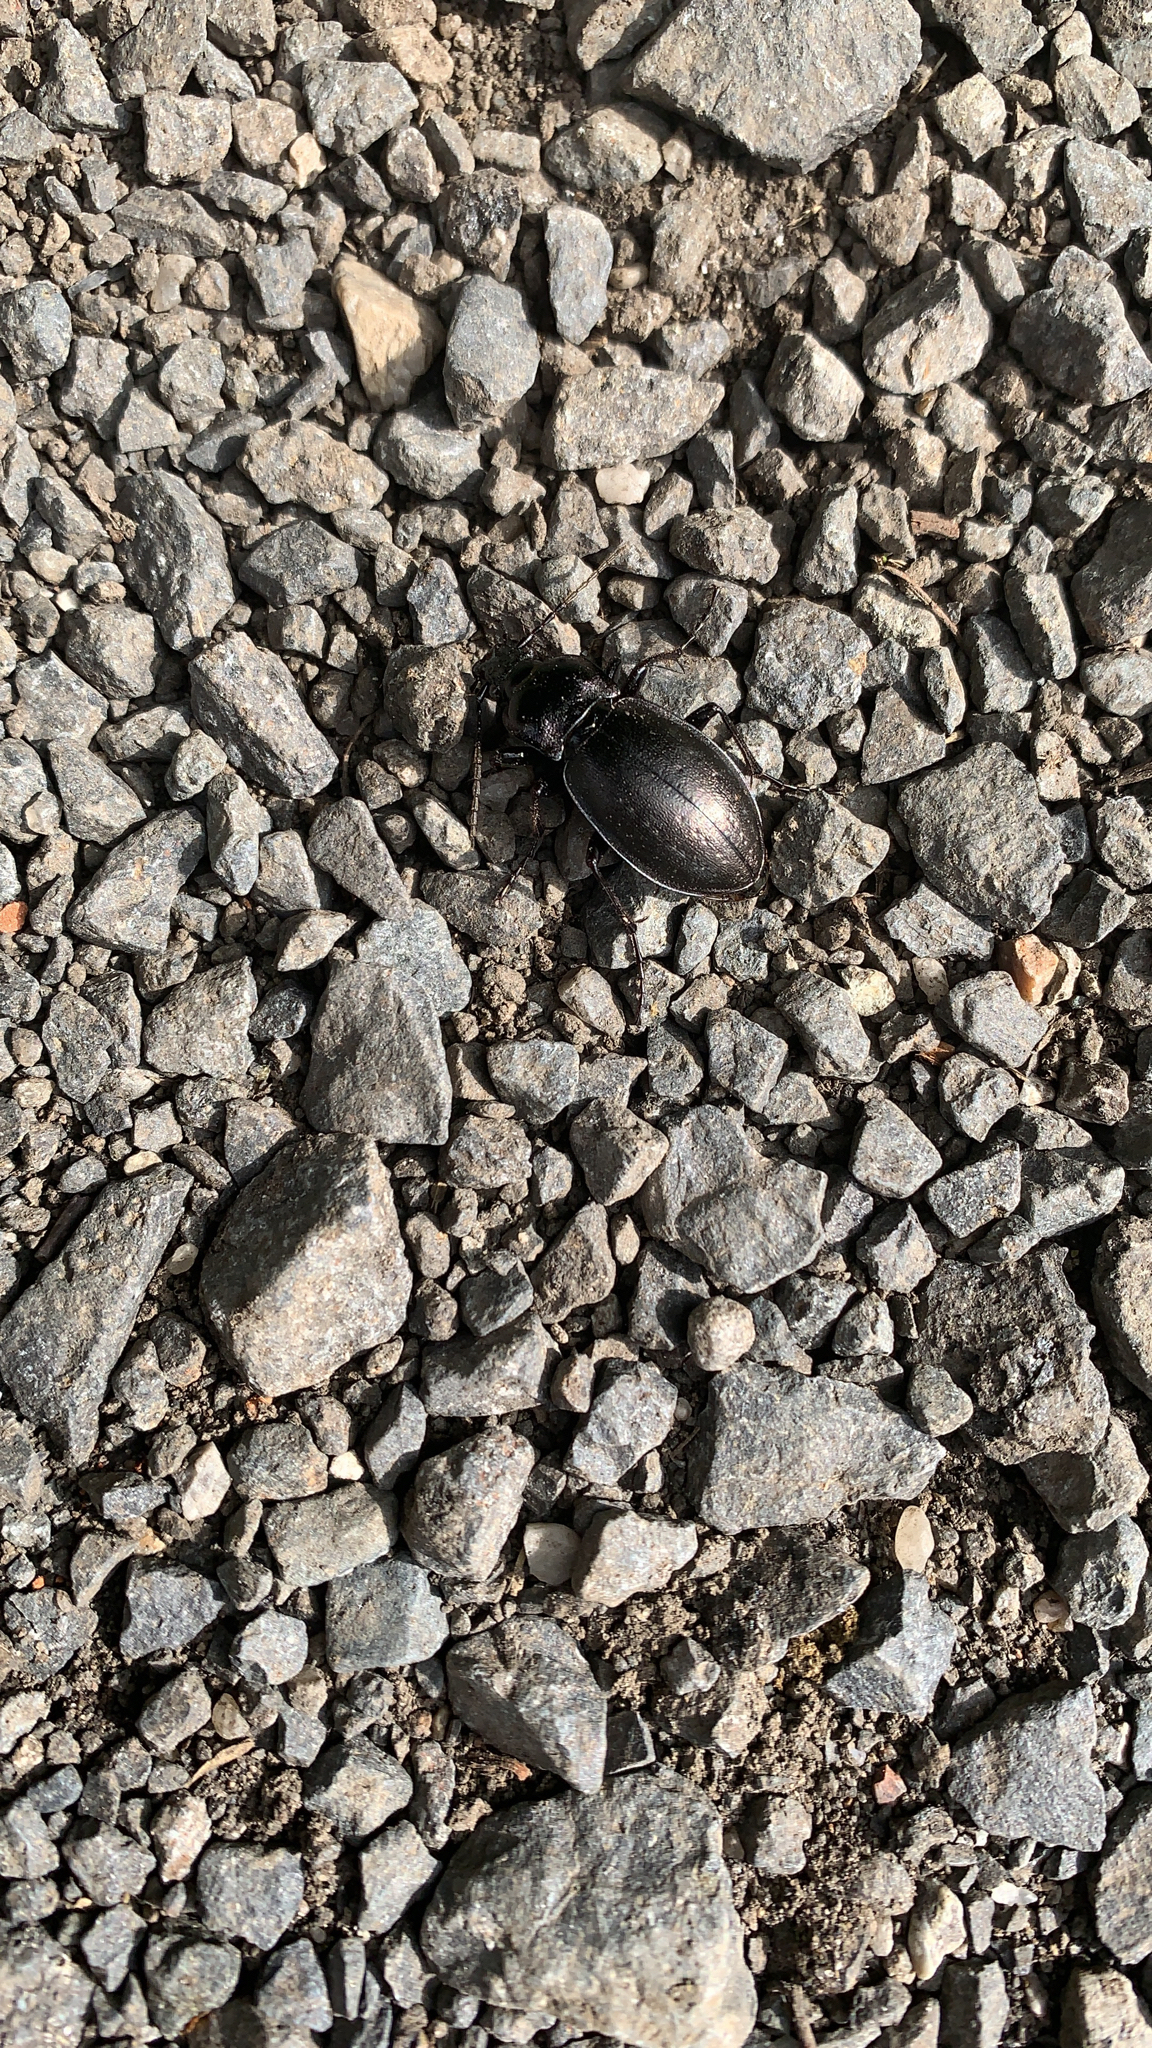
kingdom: Animalia
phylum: Arthropoda
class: Insecta
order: Coleoptera
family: Carabidae
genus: Carabus
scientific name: Carabus nemoralis
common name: European ground beetle
